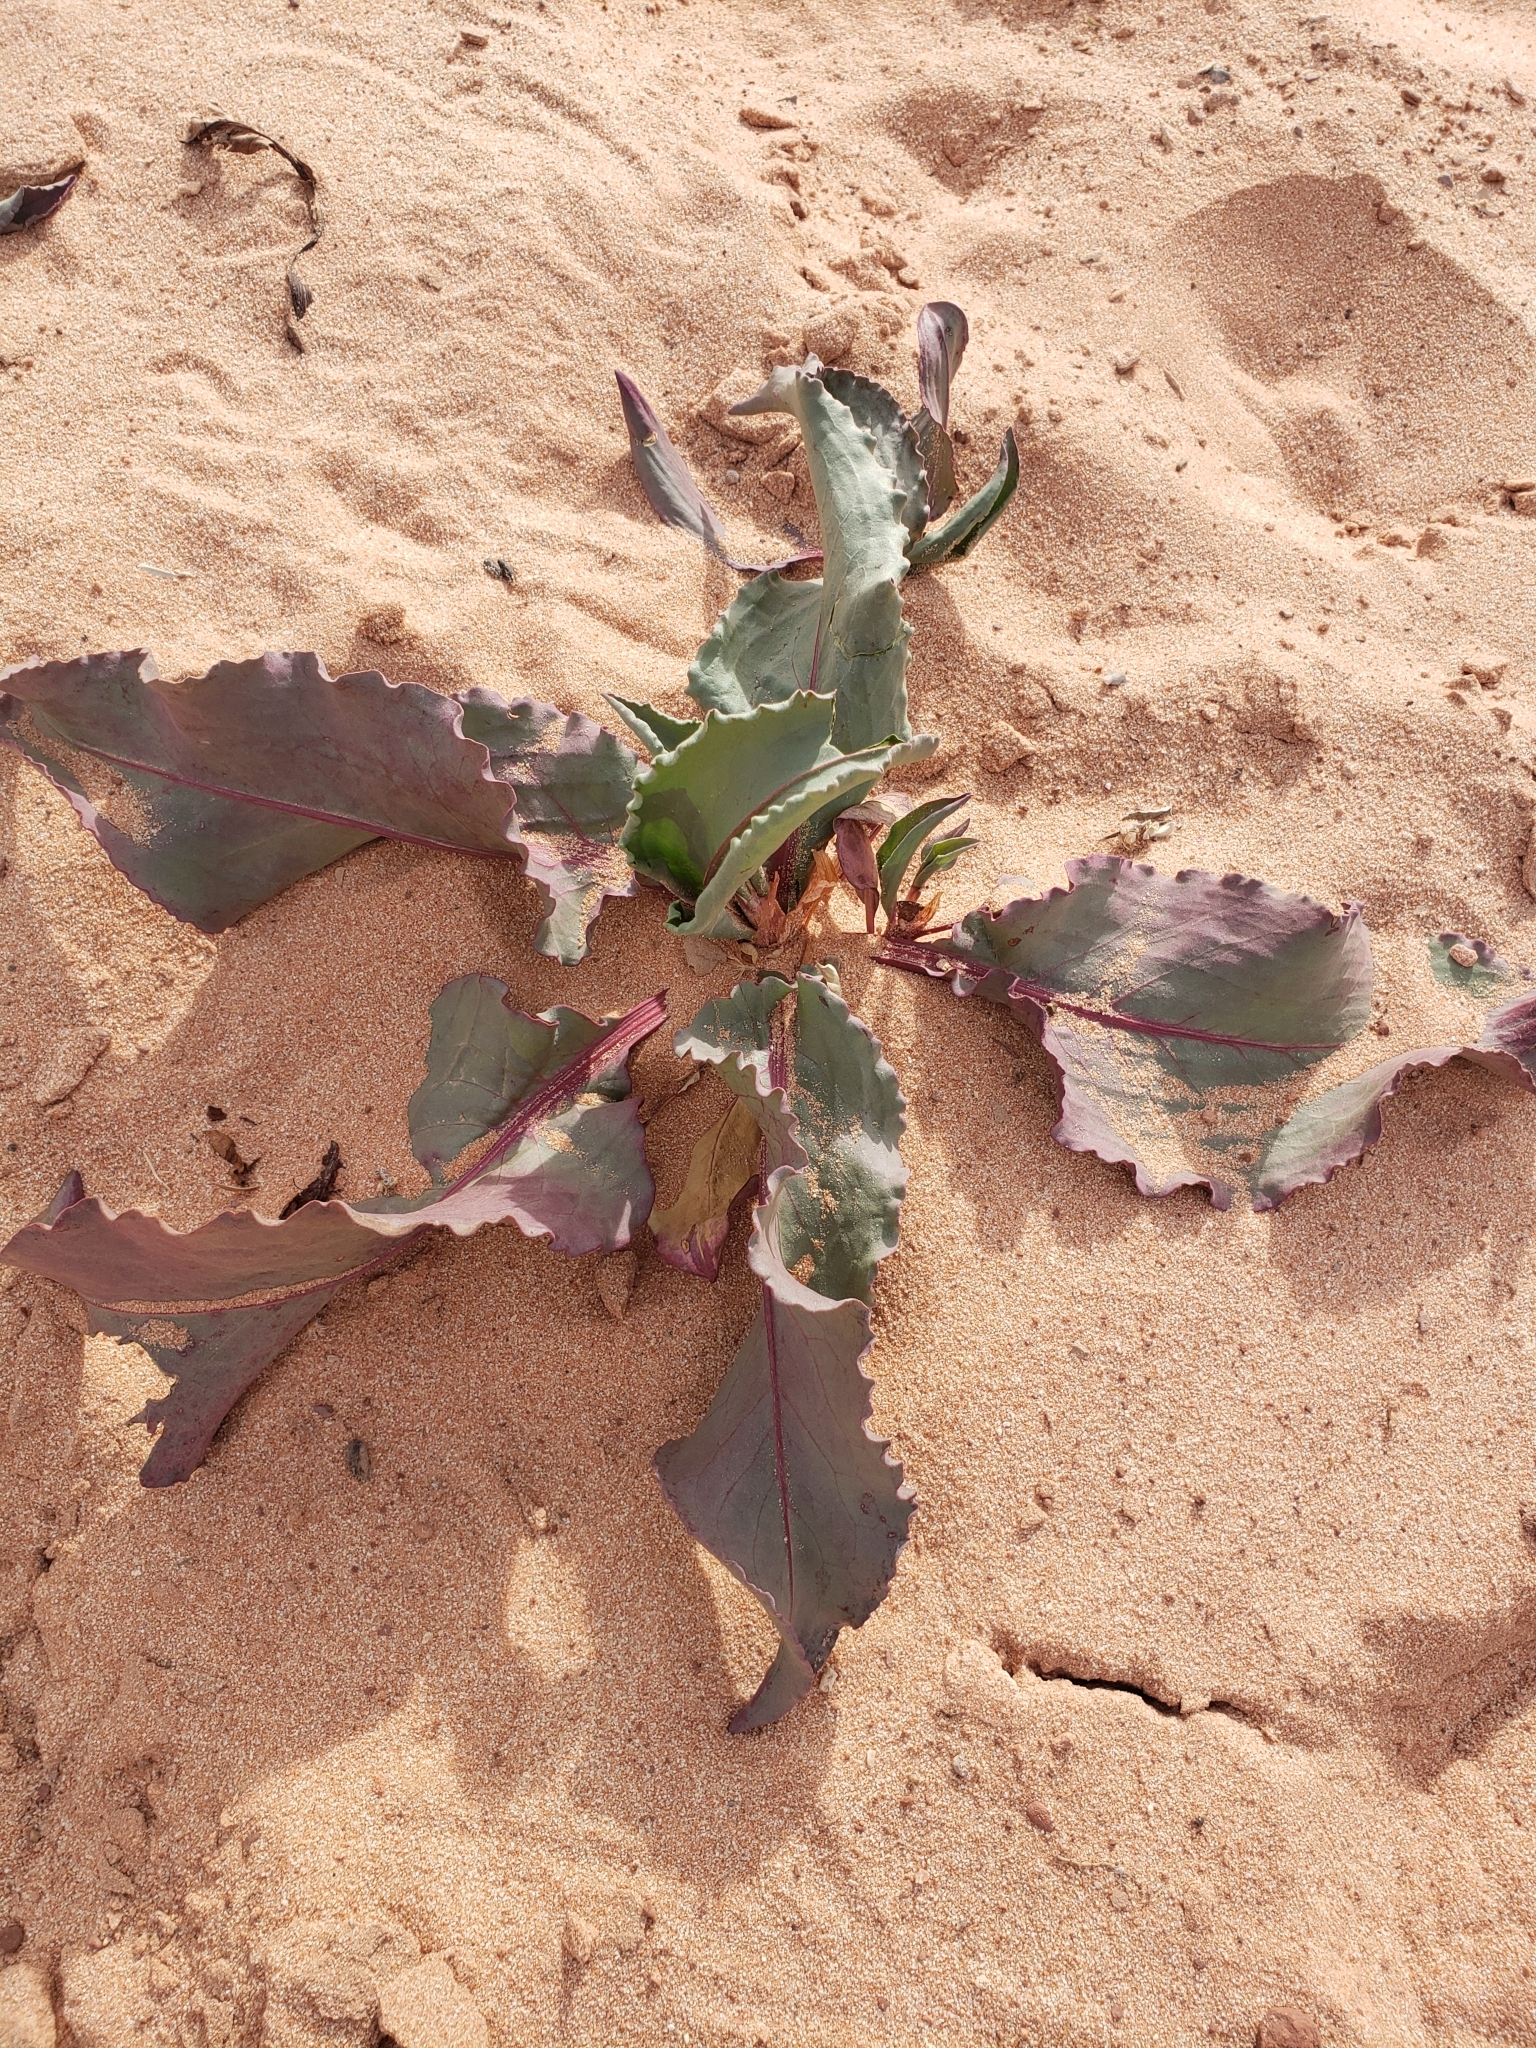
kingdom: Plantae
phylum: Tracheophyta
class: Magnoliopsida
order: Caryophyllales
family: Polygonaceae
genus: Rumex
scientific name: Rumex hymenosepalus
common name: Ganagra
